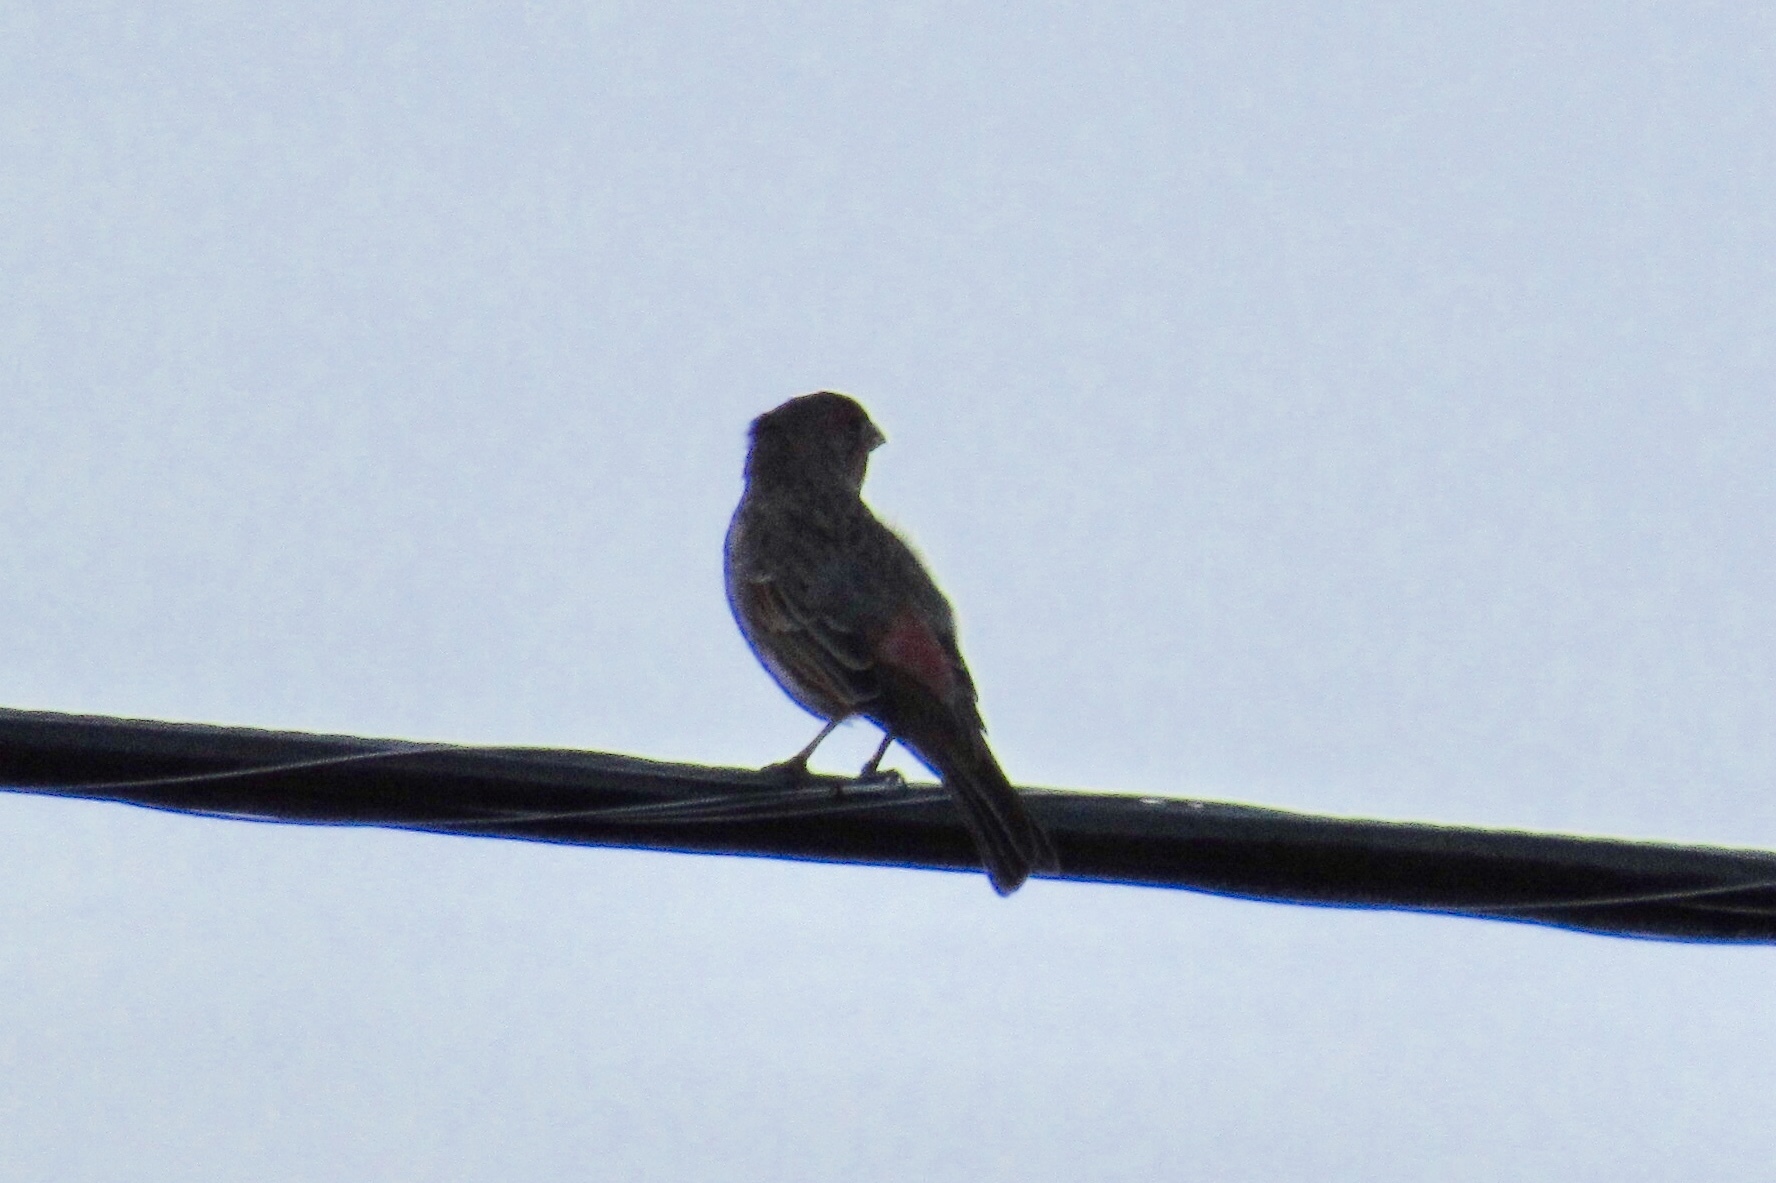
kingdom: Animalia
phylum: Chordata
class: Aves
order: Passeriformes
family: Fringillidae
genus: Haemorhous
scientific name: Haemorhous mexicanus
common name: House finch
